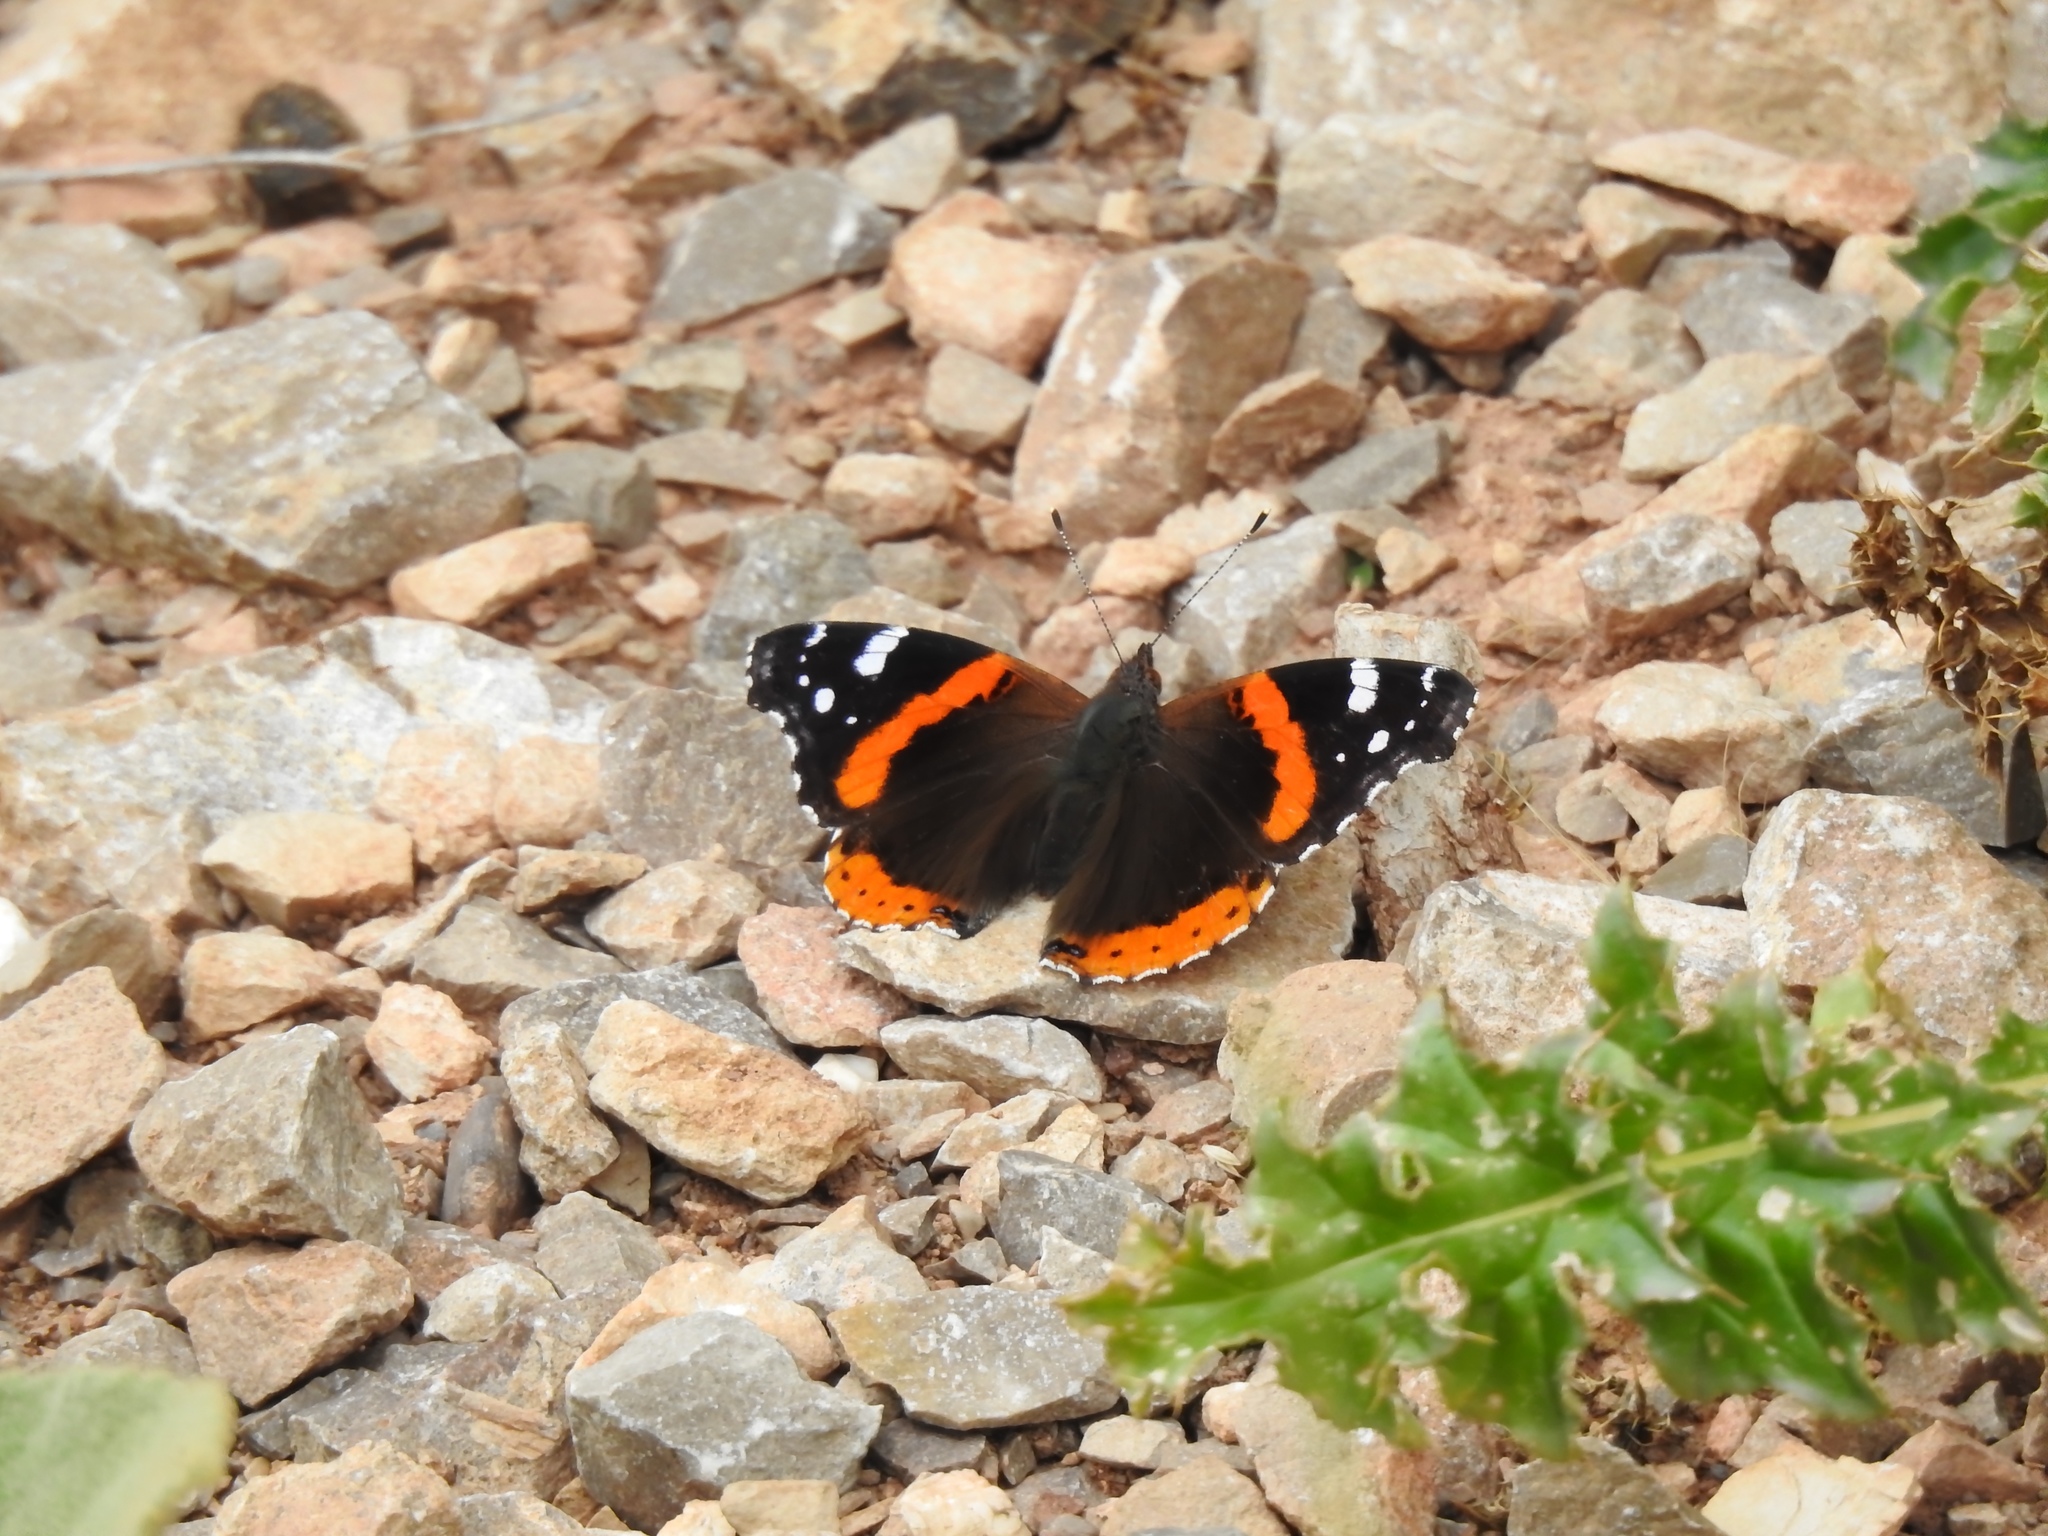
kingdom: Animalia
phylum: Arthropoda
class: Insecta
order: Lepidoptera
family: Nymphalidae
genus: Vanessa
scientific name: Vanessa atalanta
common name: Red admiral
